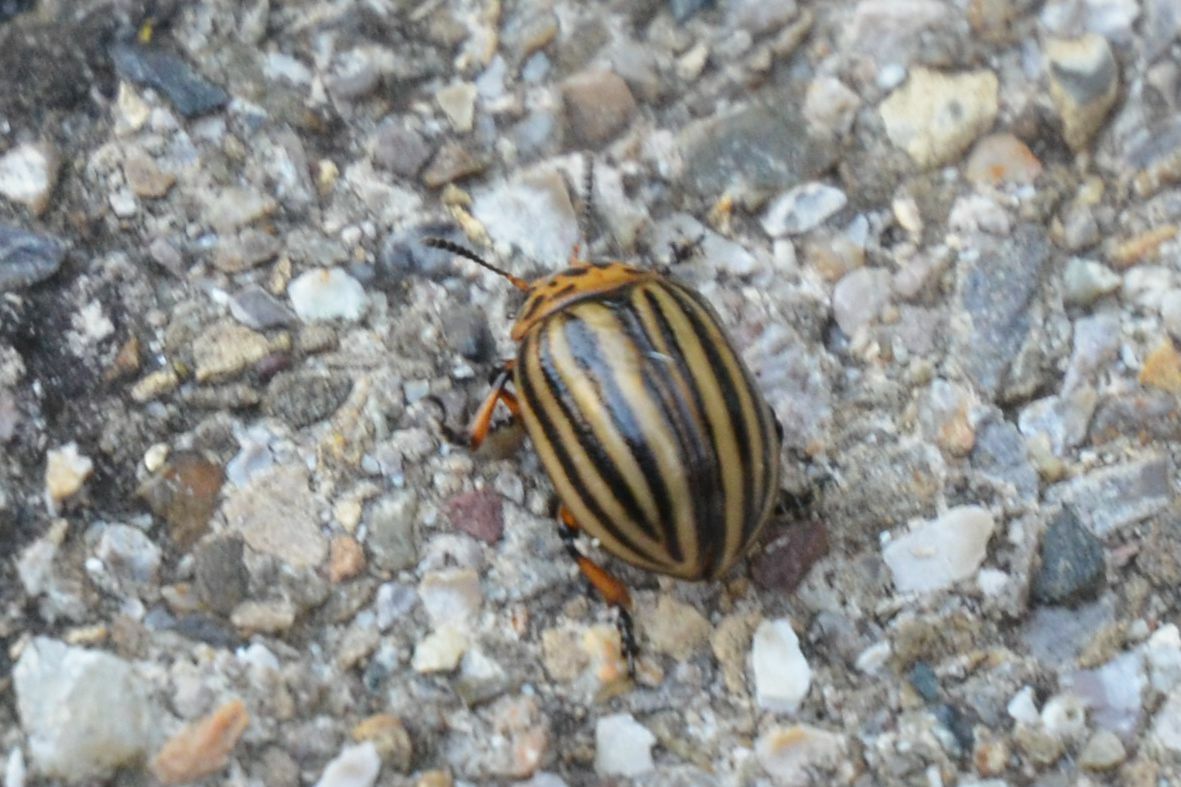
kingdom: Animalia
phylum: Arthropoda
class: Insecta
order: Coleoptera
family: Chrysomelidae
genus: Leptinotarsa
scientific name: Leptinotarsa decemlineata
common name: Colorado potato beetle
